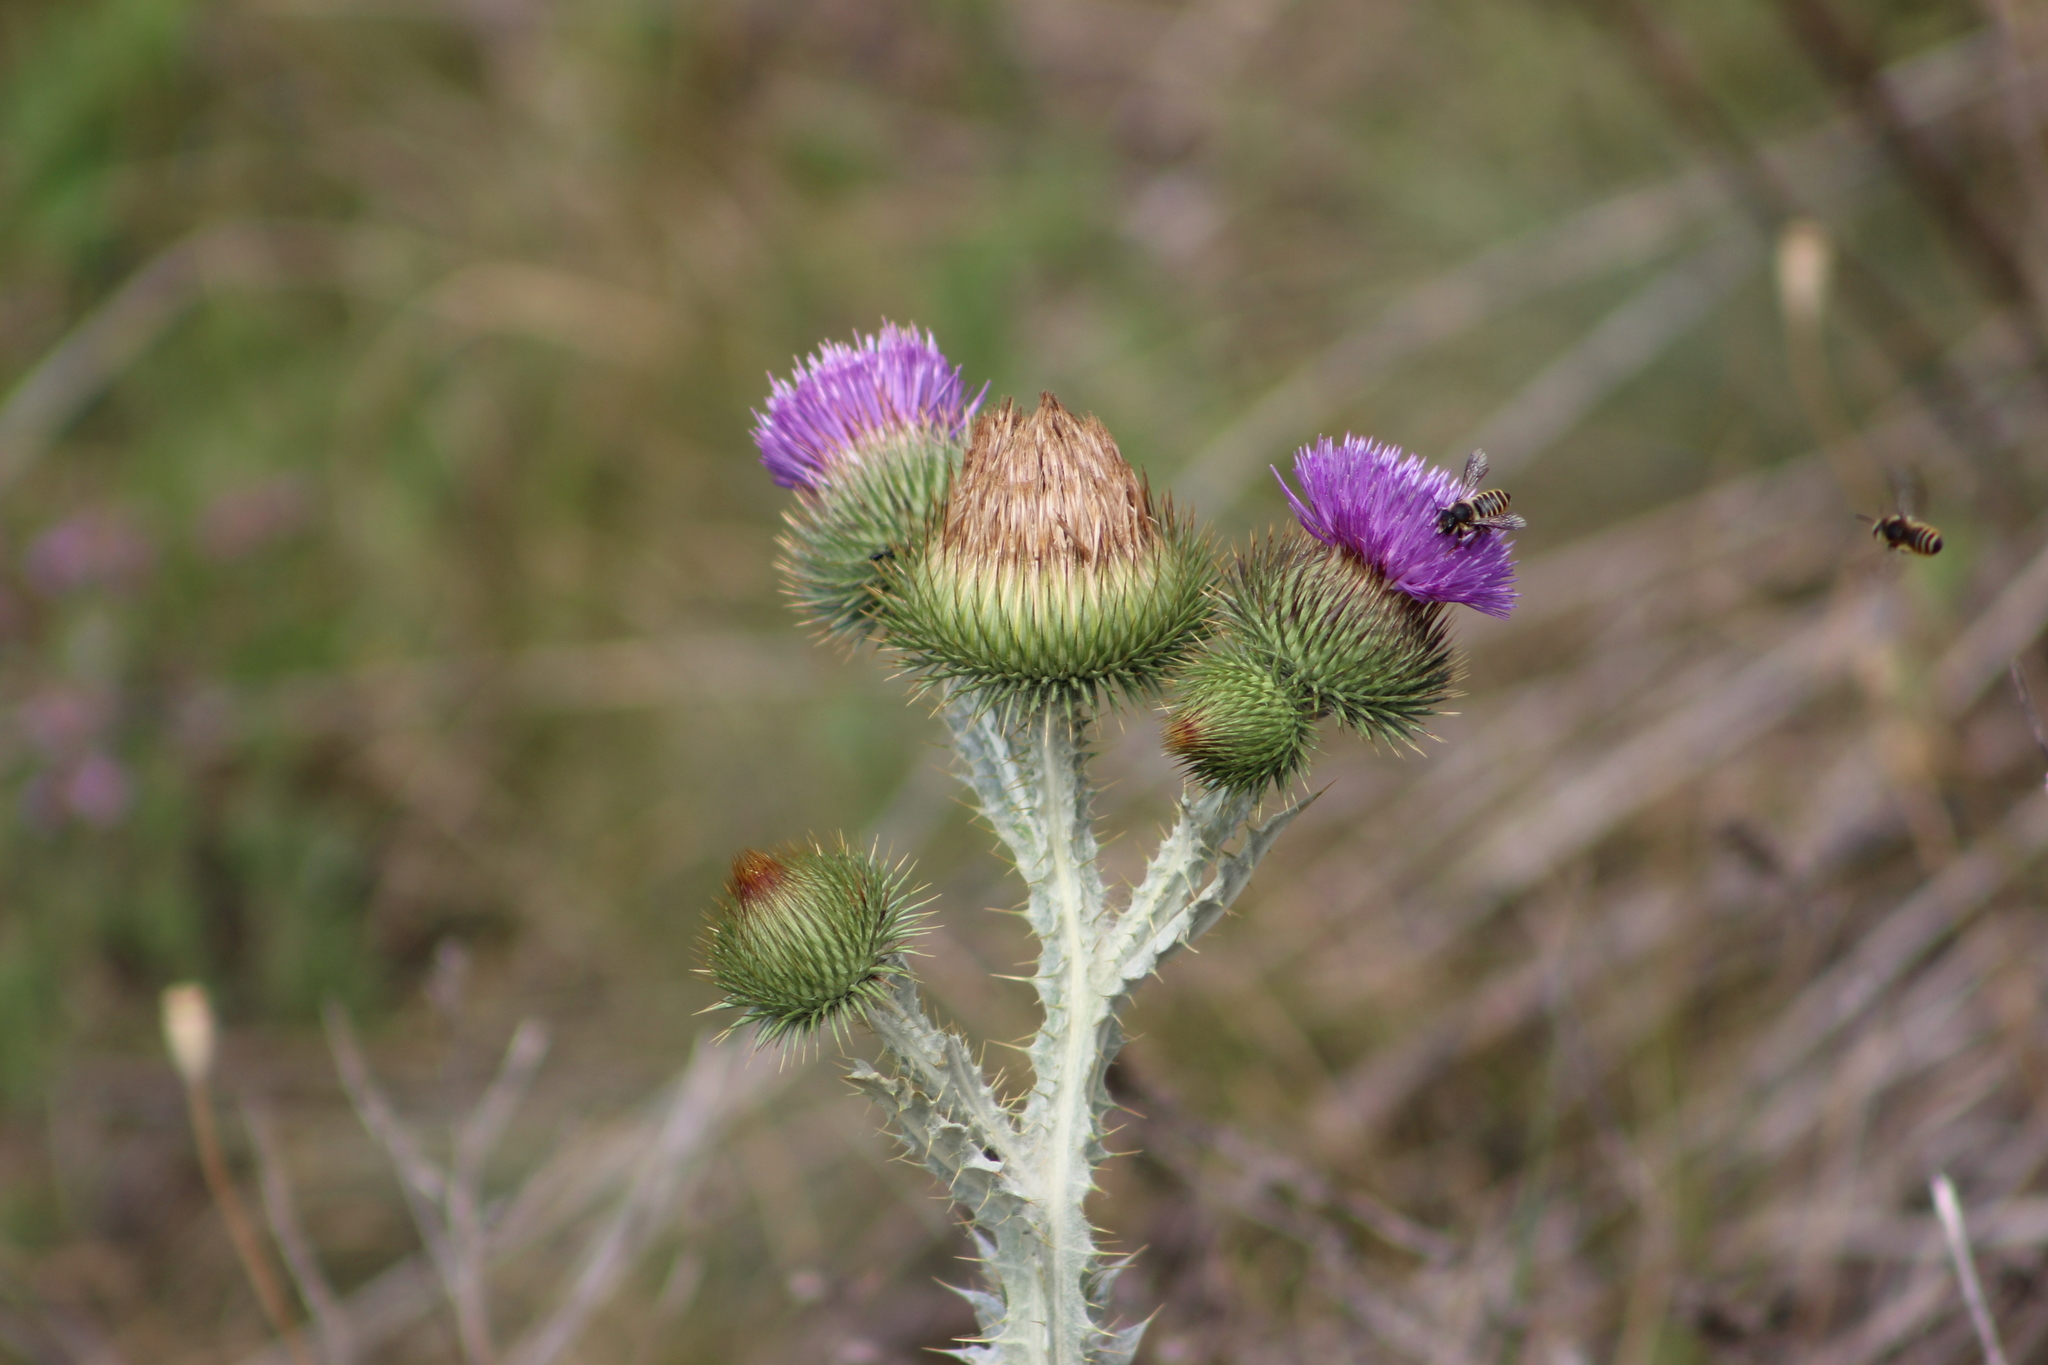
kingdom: Plantae
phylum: Tracheophyta
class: Magnoliopsida
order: Asterales
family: Asteraceae
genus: Onopordum
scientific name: Onopordum acanthium
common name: Scotch thistle
